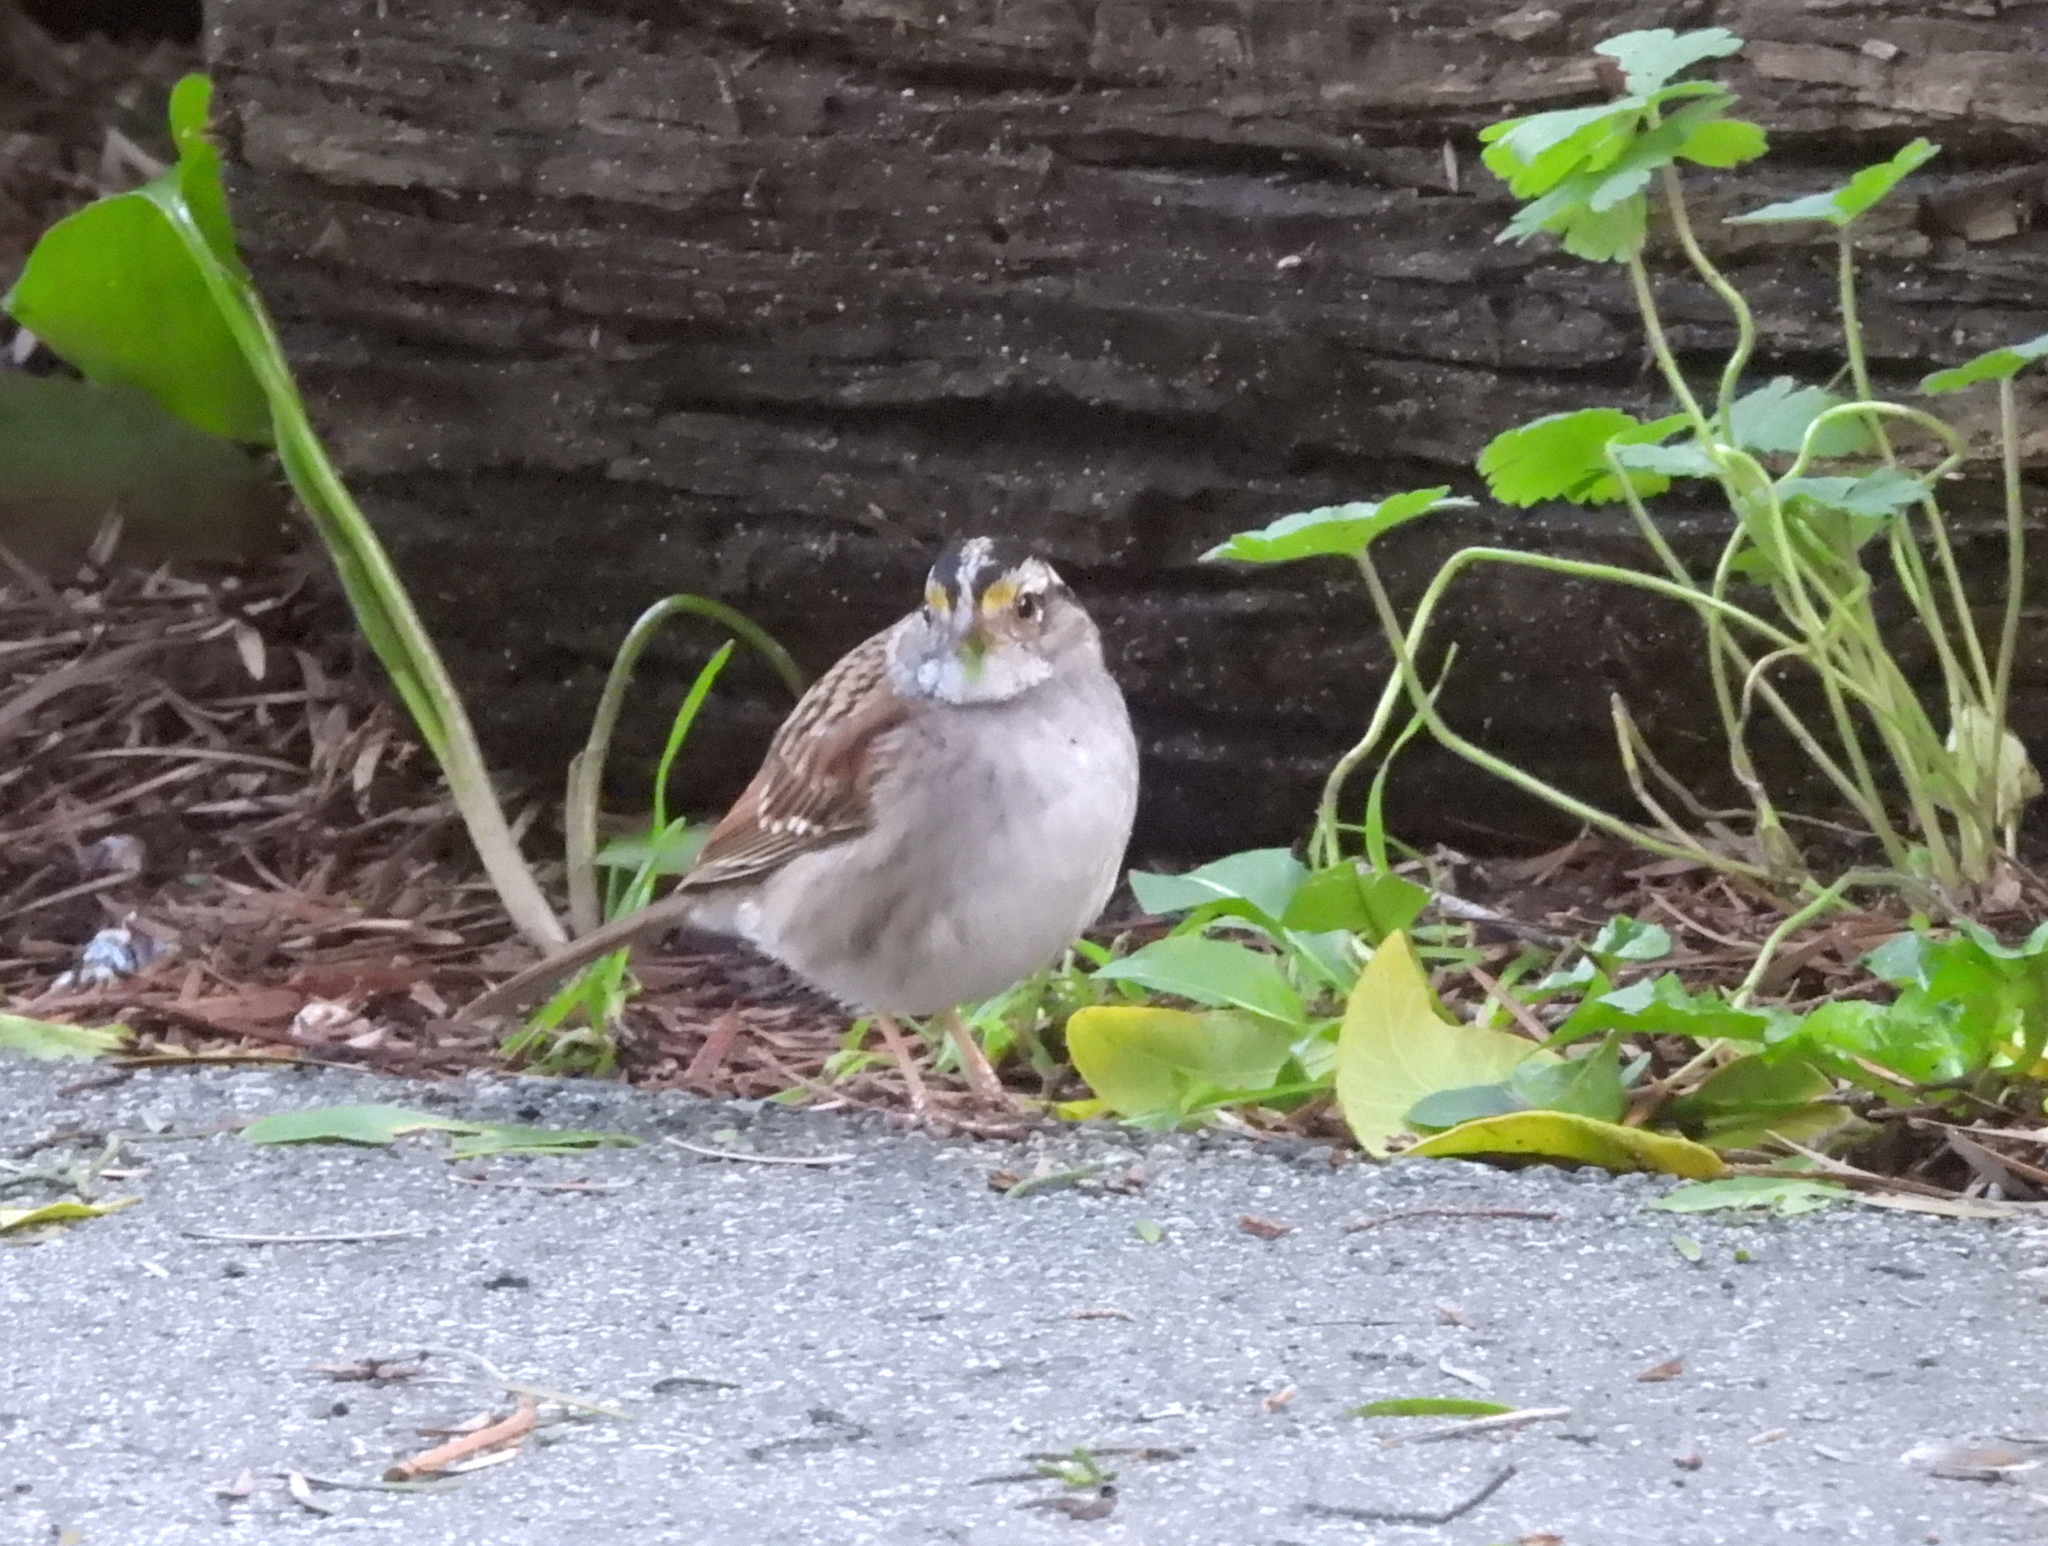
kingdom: Animalia
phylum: Chordata
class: Aves
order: Passeriformes
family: Passerellidae
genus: Zonotrichia
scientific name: Zonotrichia albicollis
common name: White-throated sparrow
